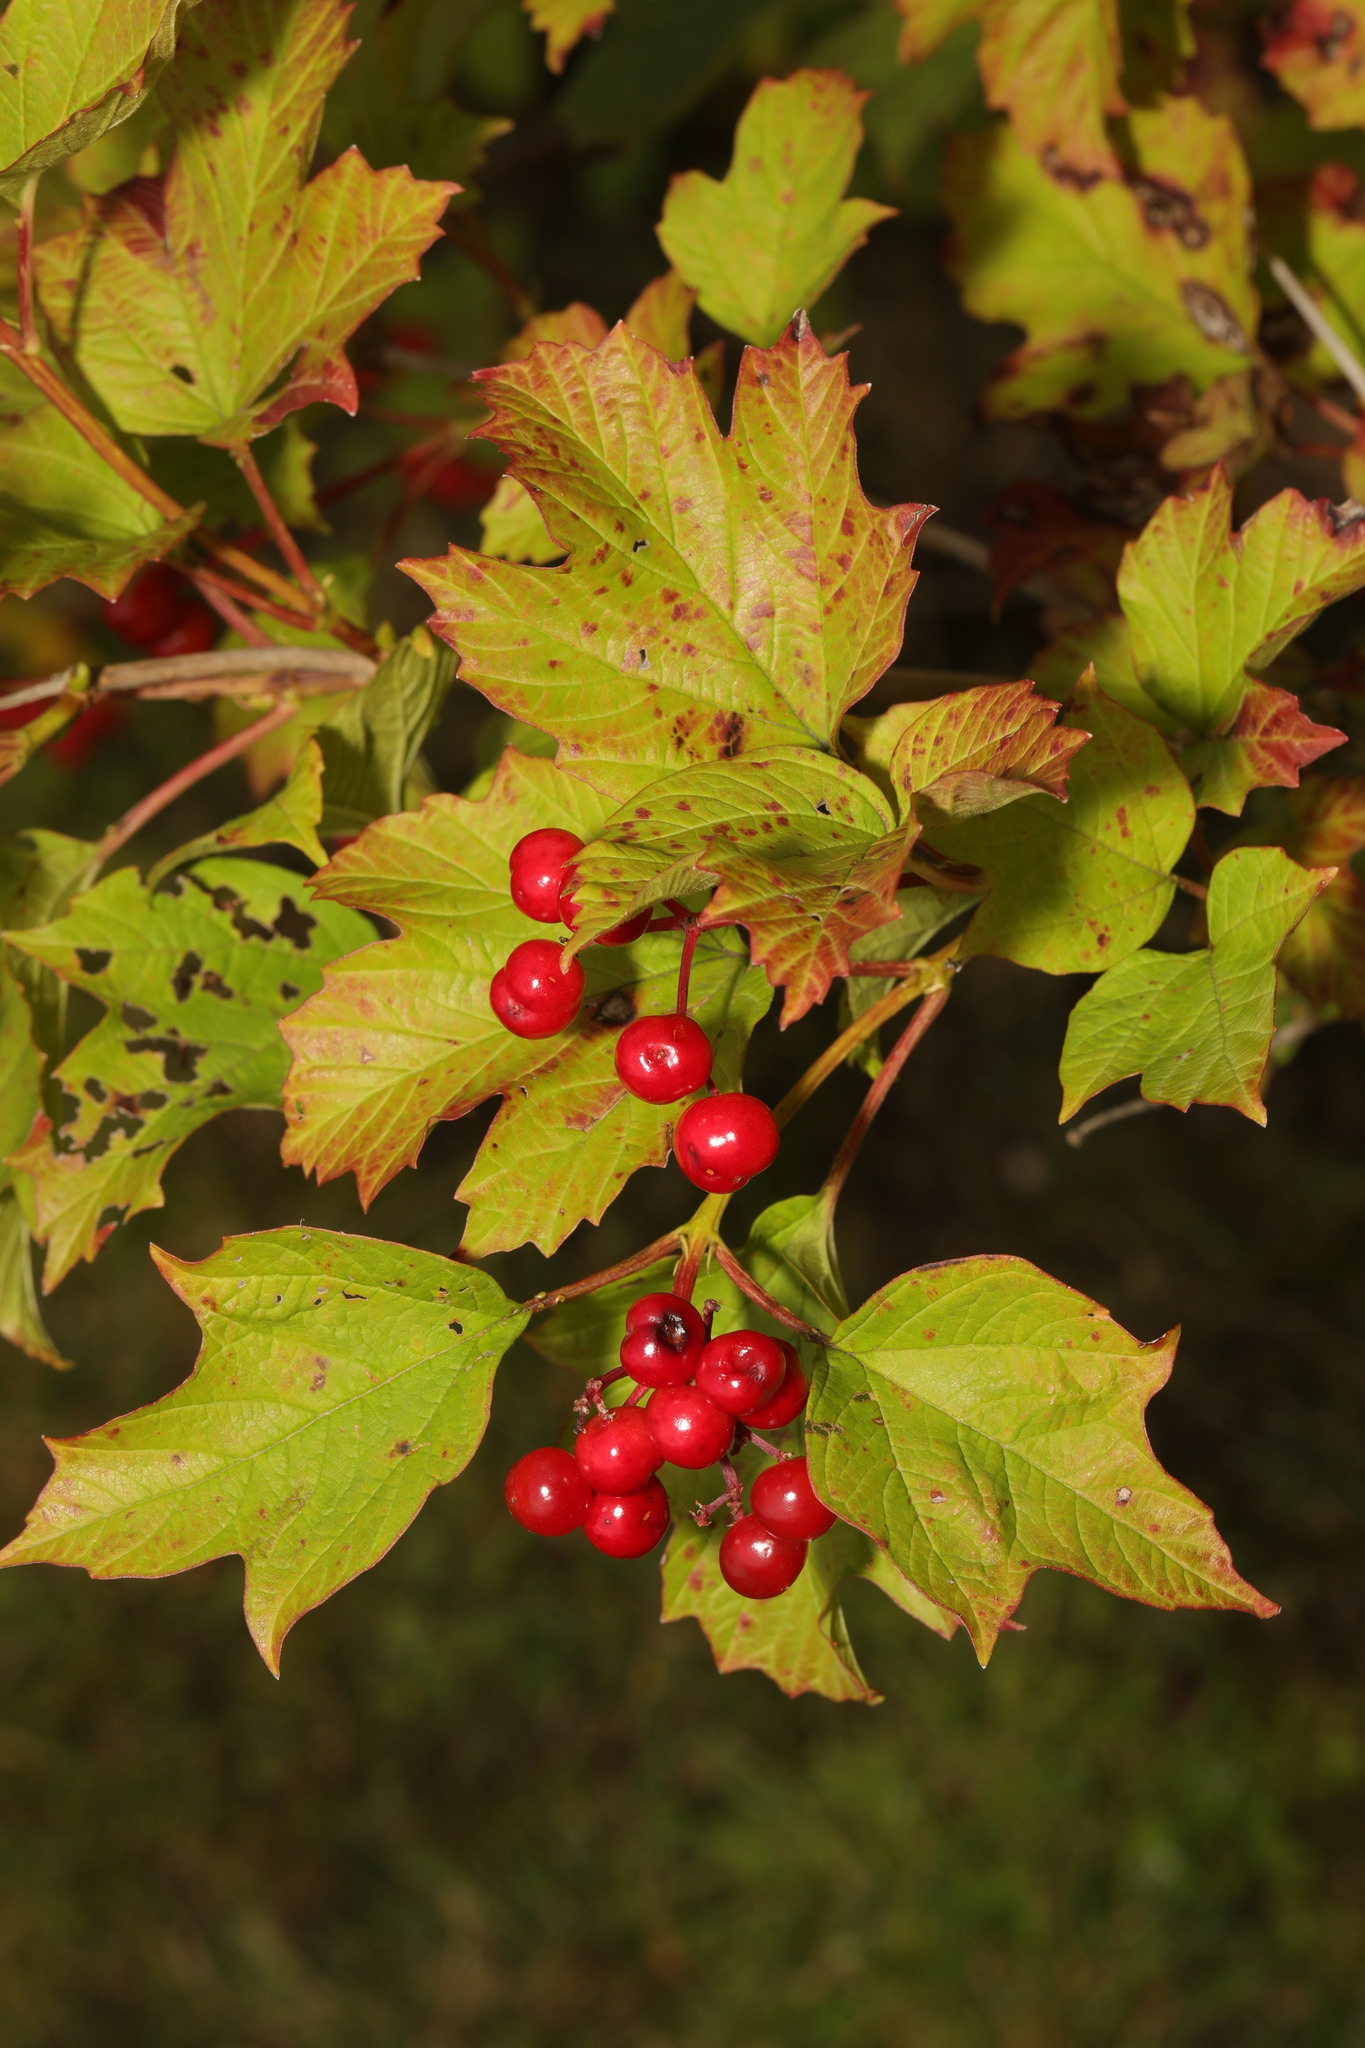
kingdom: Plantae
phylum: Tracheophyta
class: Magnoliopsida
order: Dipsacales
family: Viburnaceae
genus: Viburnum
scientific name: Viburnum opulus
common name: Guelder-rose
